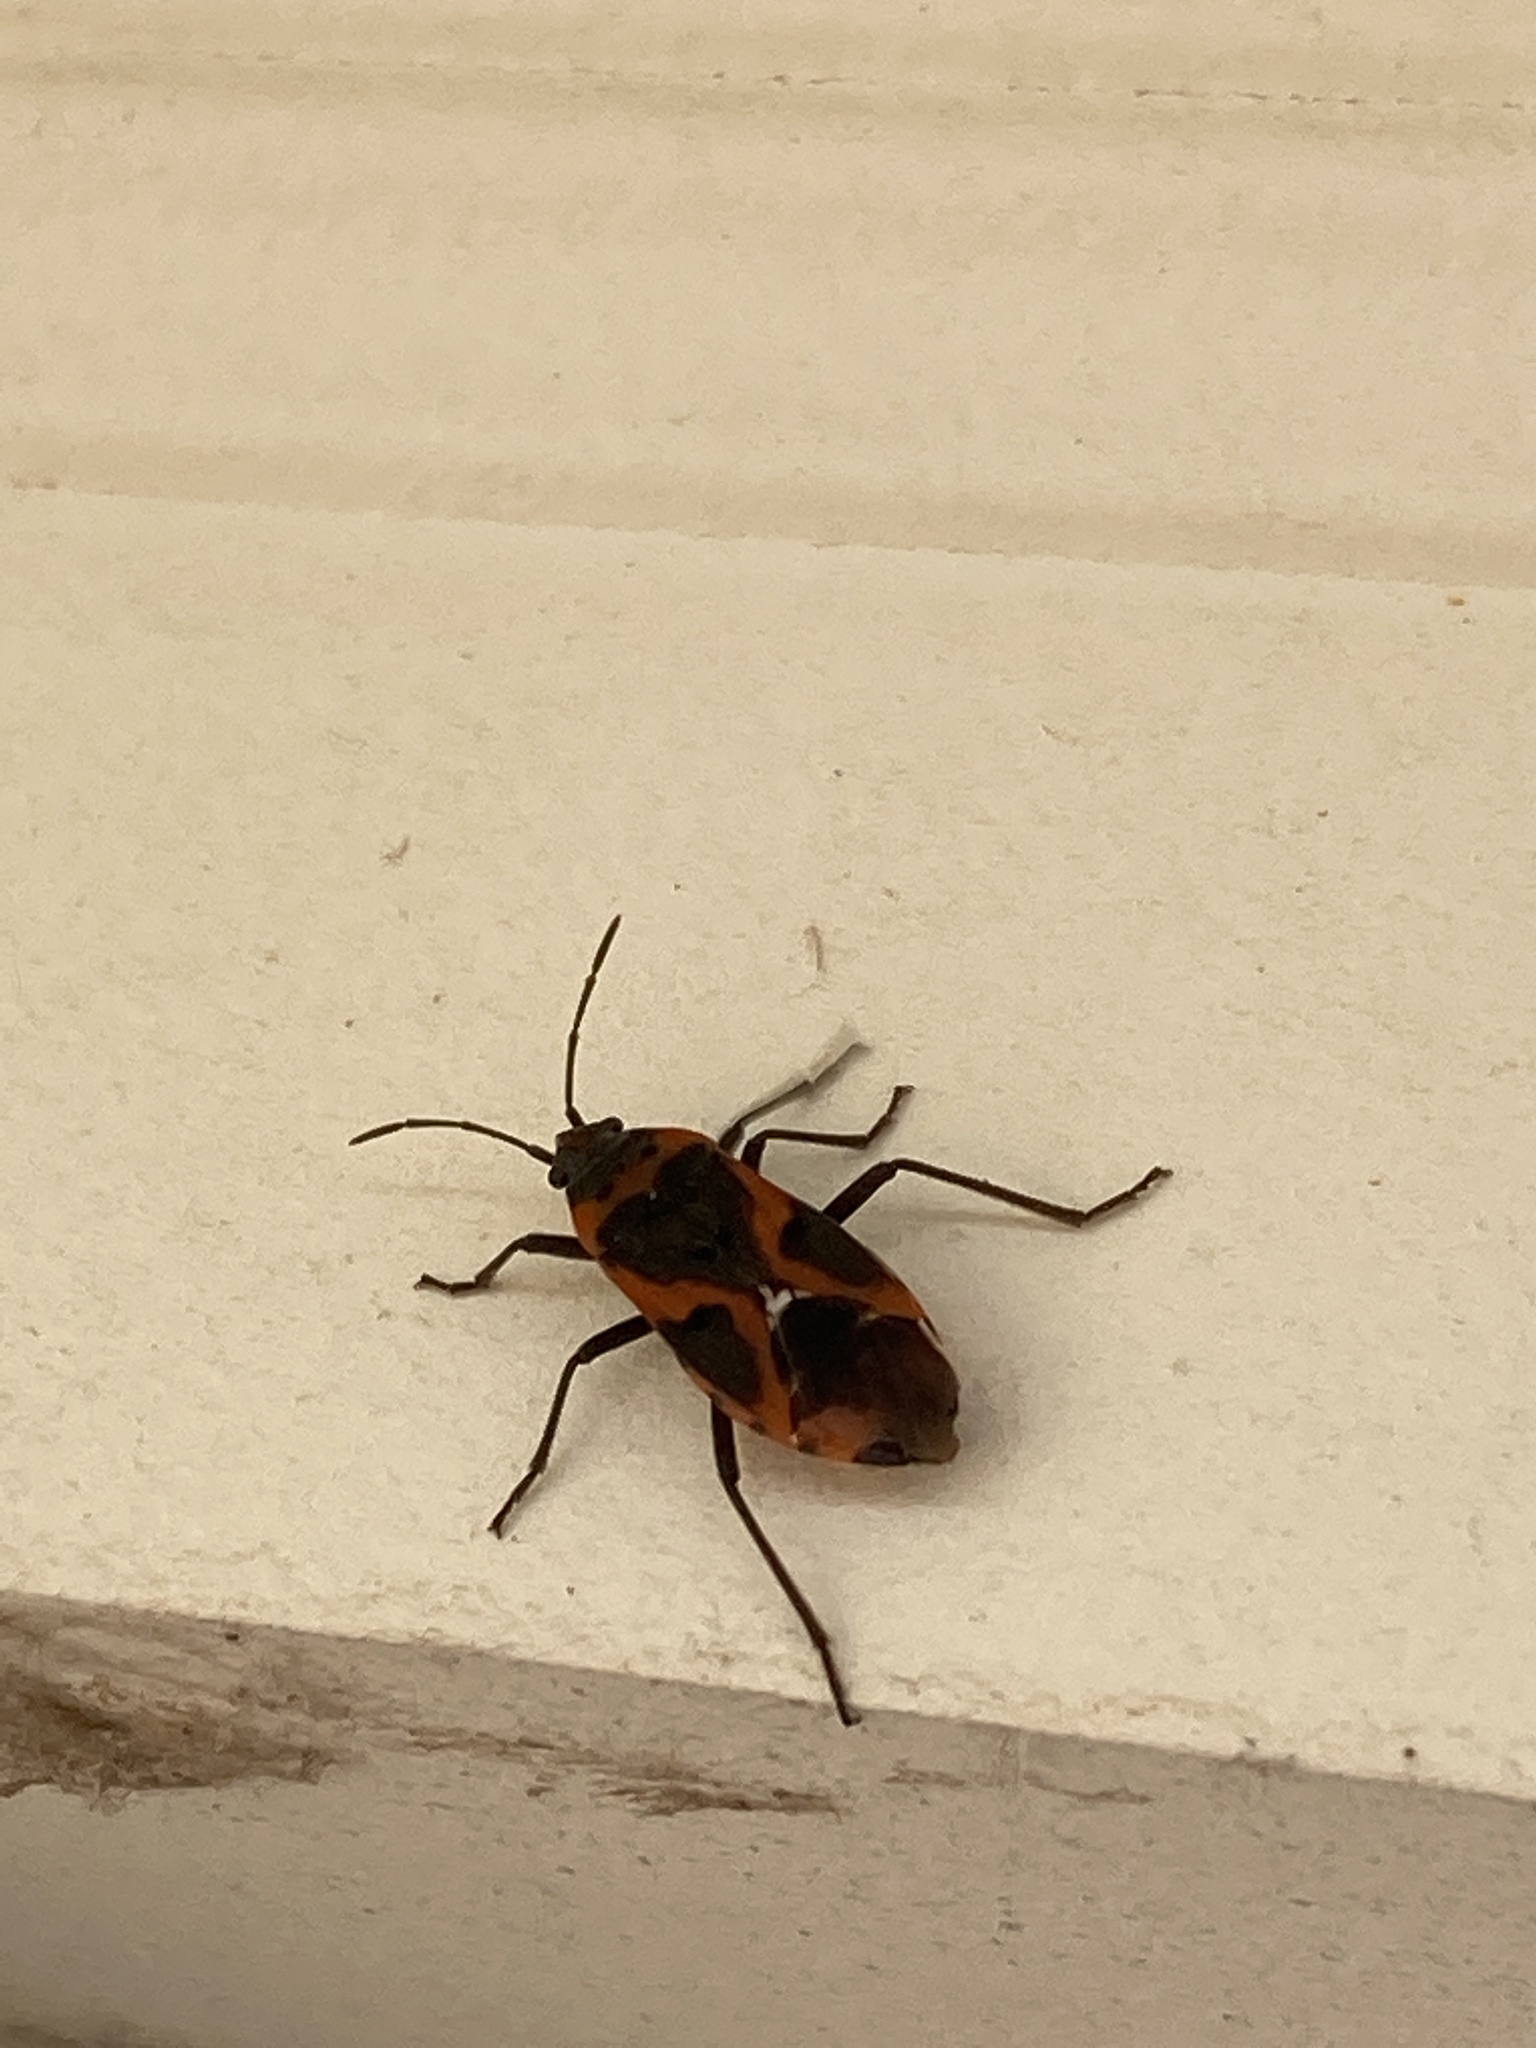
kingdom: Animalia
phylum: Arthropoda
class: Insecta
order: Hemiptera
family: Lygaeidae
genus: Lygaeus
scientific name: Lygaeus kalmii
